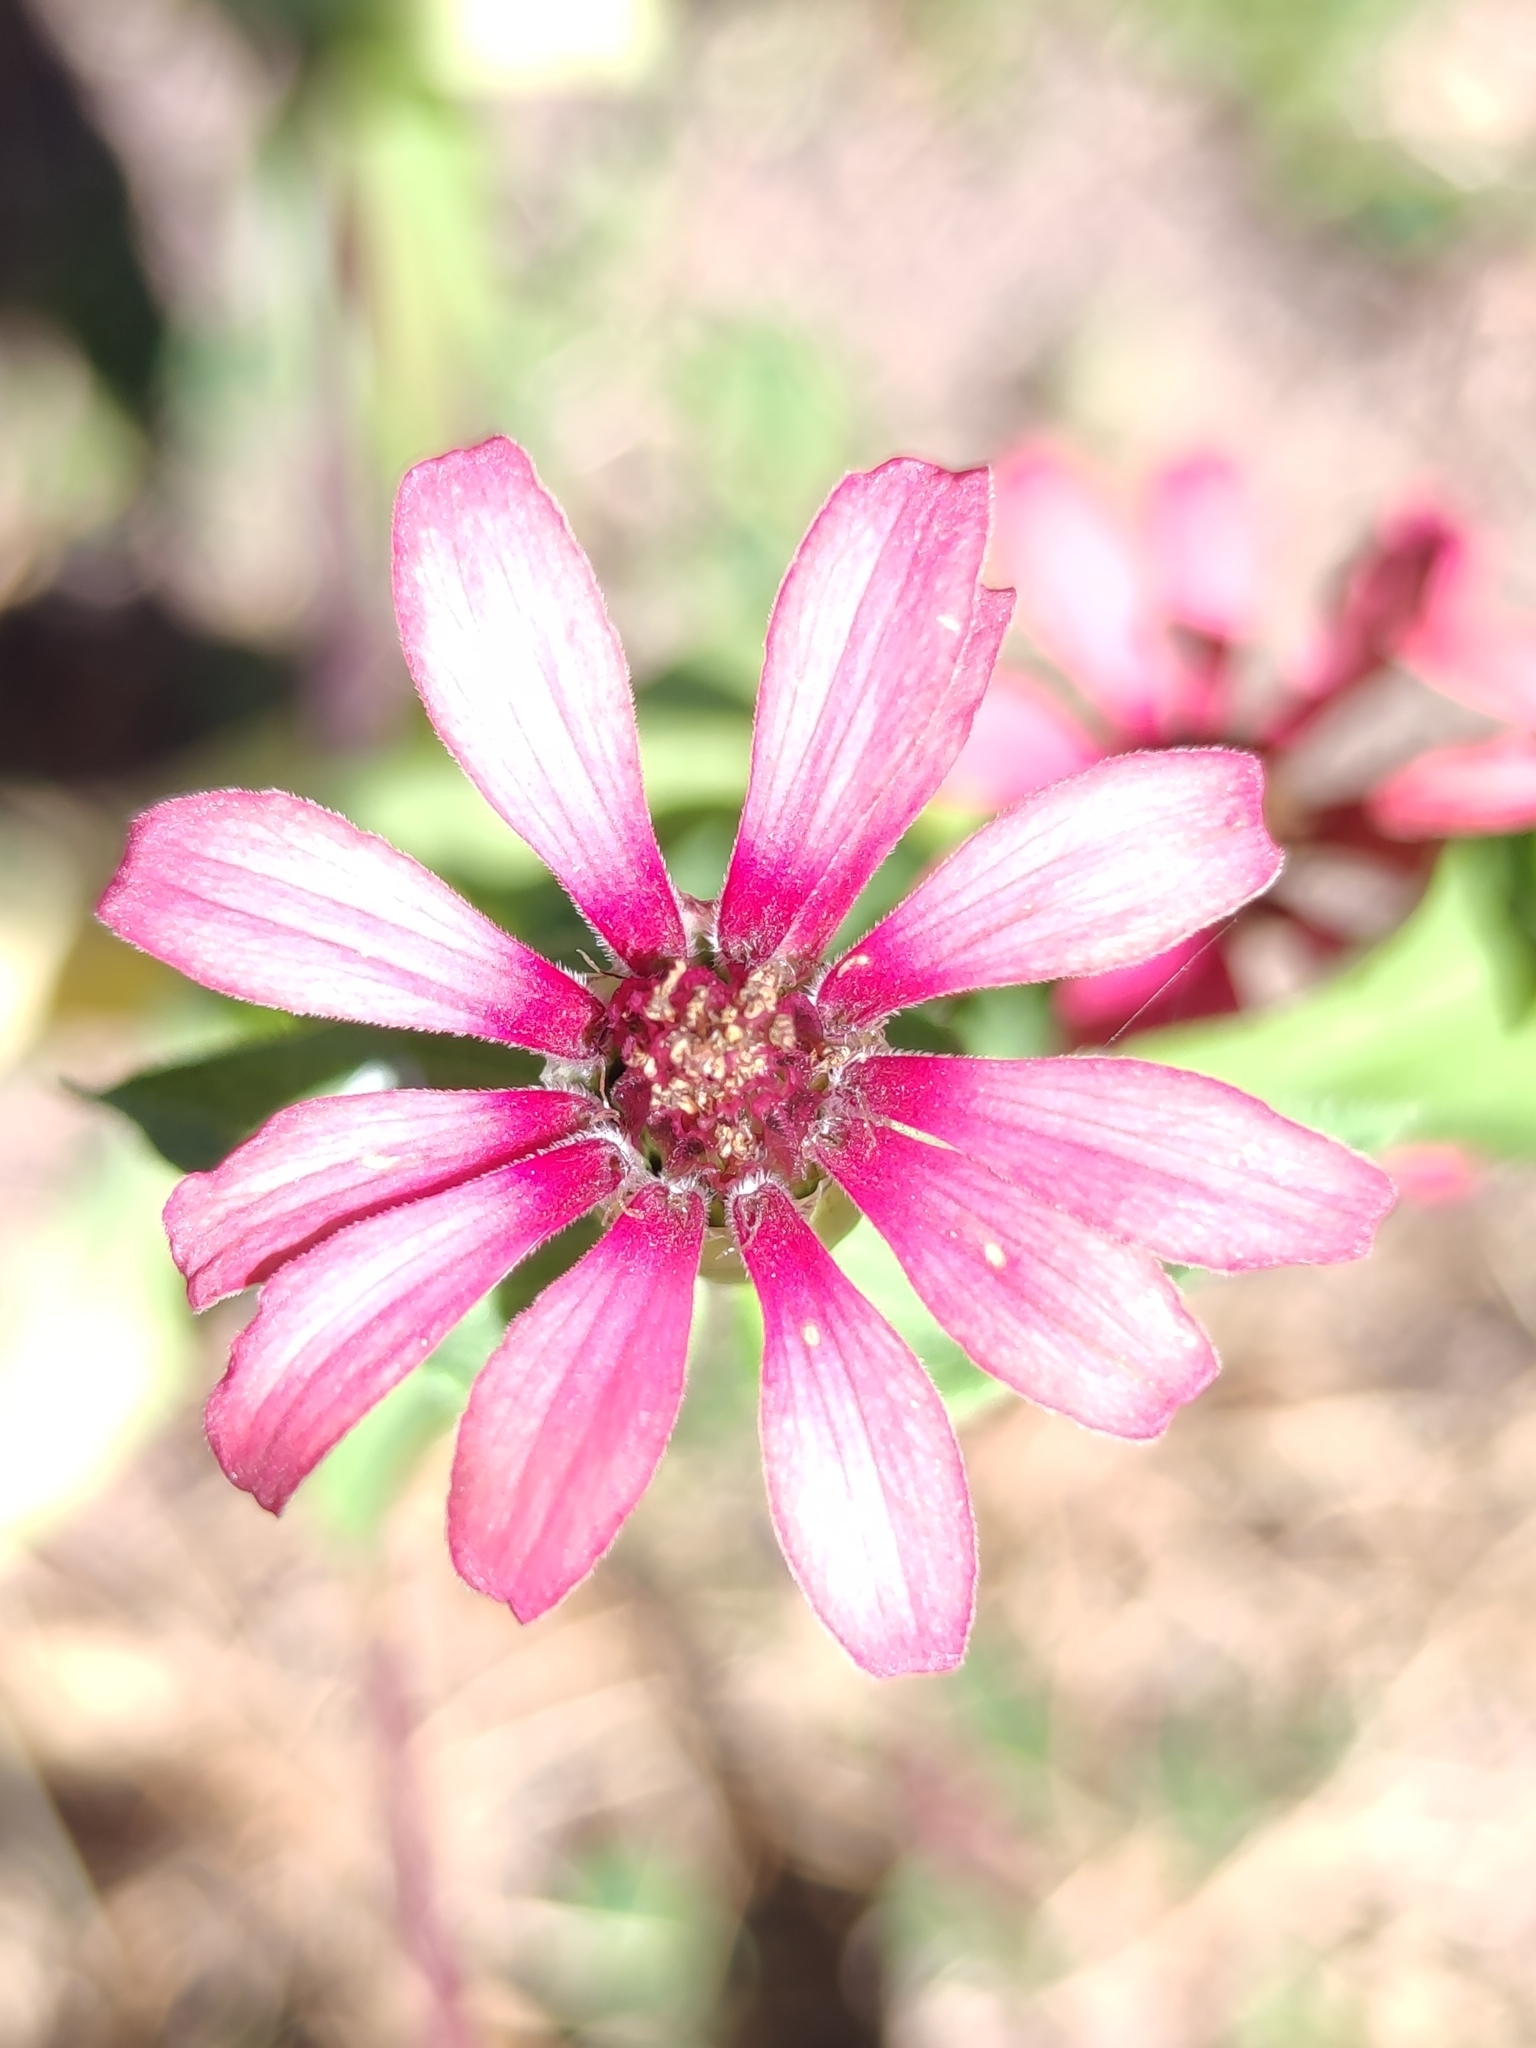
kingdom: Plantae
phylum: Tracheophyta
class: Magnoliopsida
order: Asterales
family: Asteraceae
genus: Zinnia
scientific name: Zinnia peruviana
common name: Peruvian zinnia
